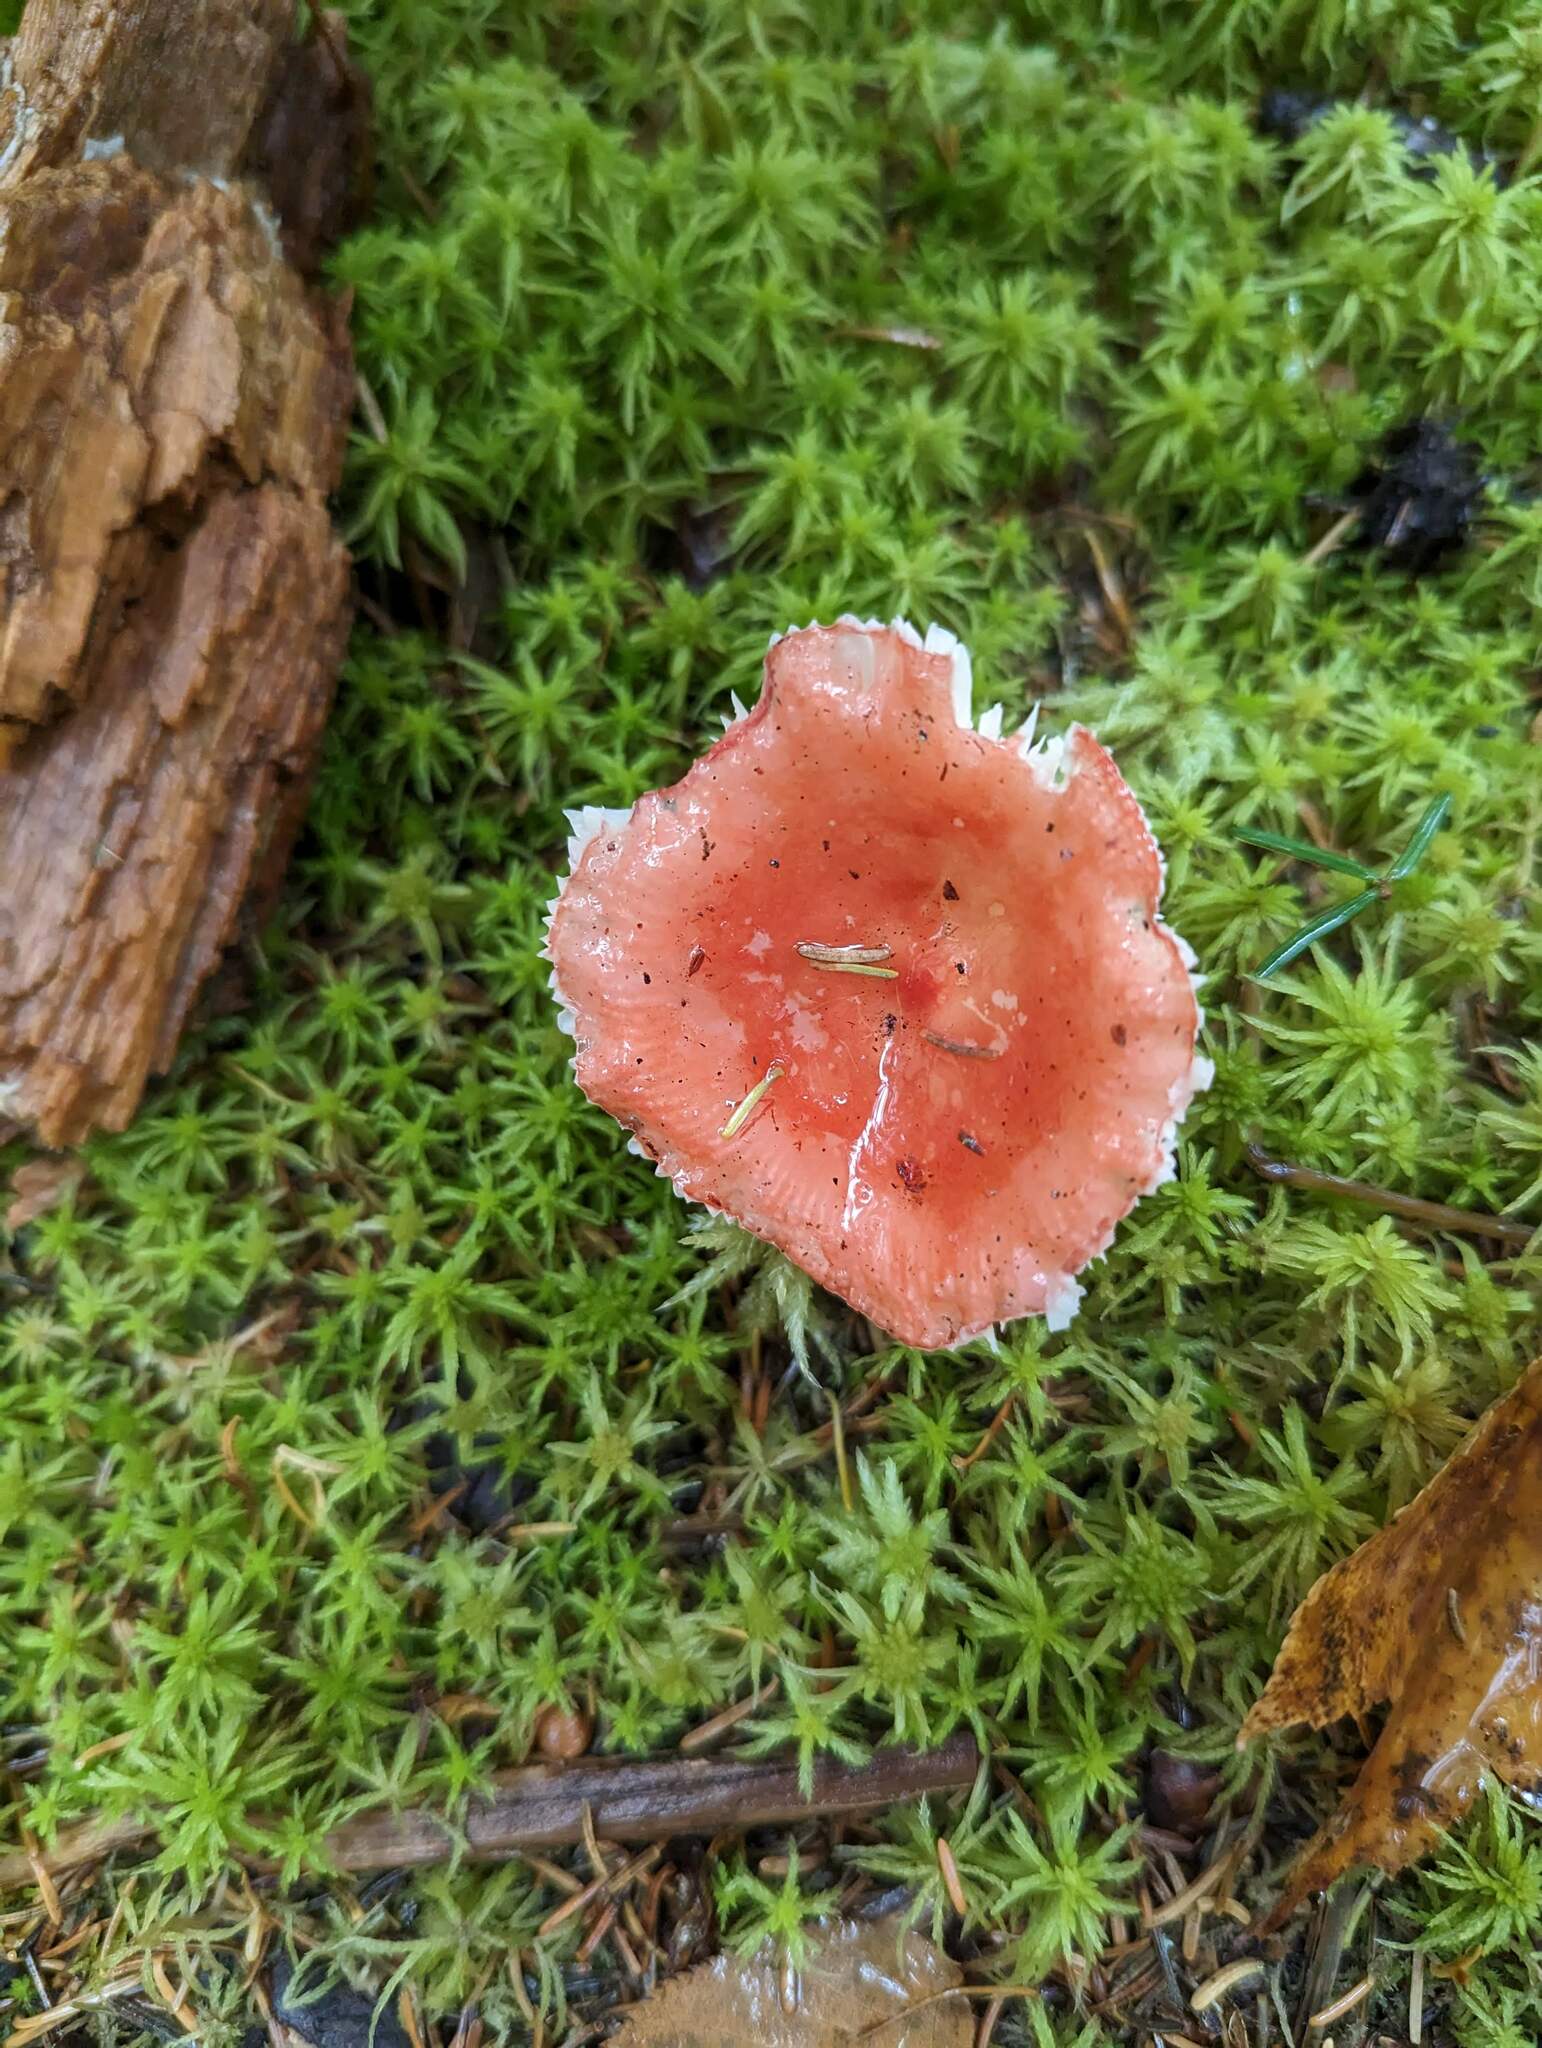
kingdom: Fungi
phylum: Basidiomycota
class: Agaricomycetes
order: Russulales
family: Russulaceae
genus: Russula
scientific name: Russula
